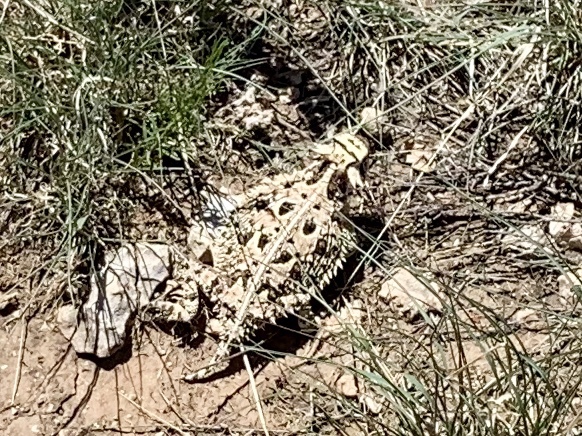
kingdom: Animalia
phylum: Chordata
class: Squamata
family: Phrynosomatidae
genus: Phrynosoma
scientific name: Phrynosoma cornutum
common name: Texas horned lizard
